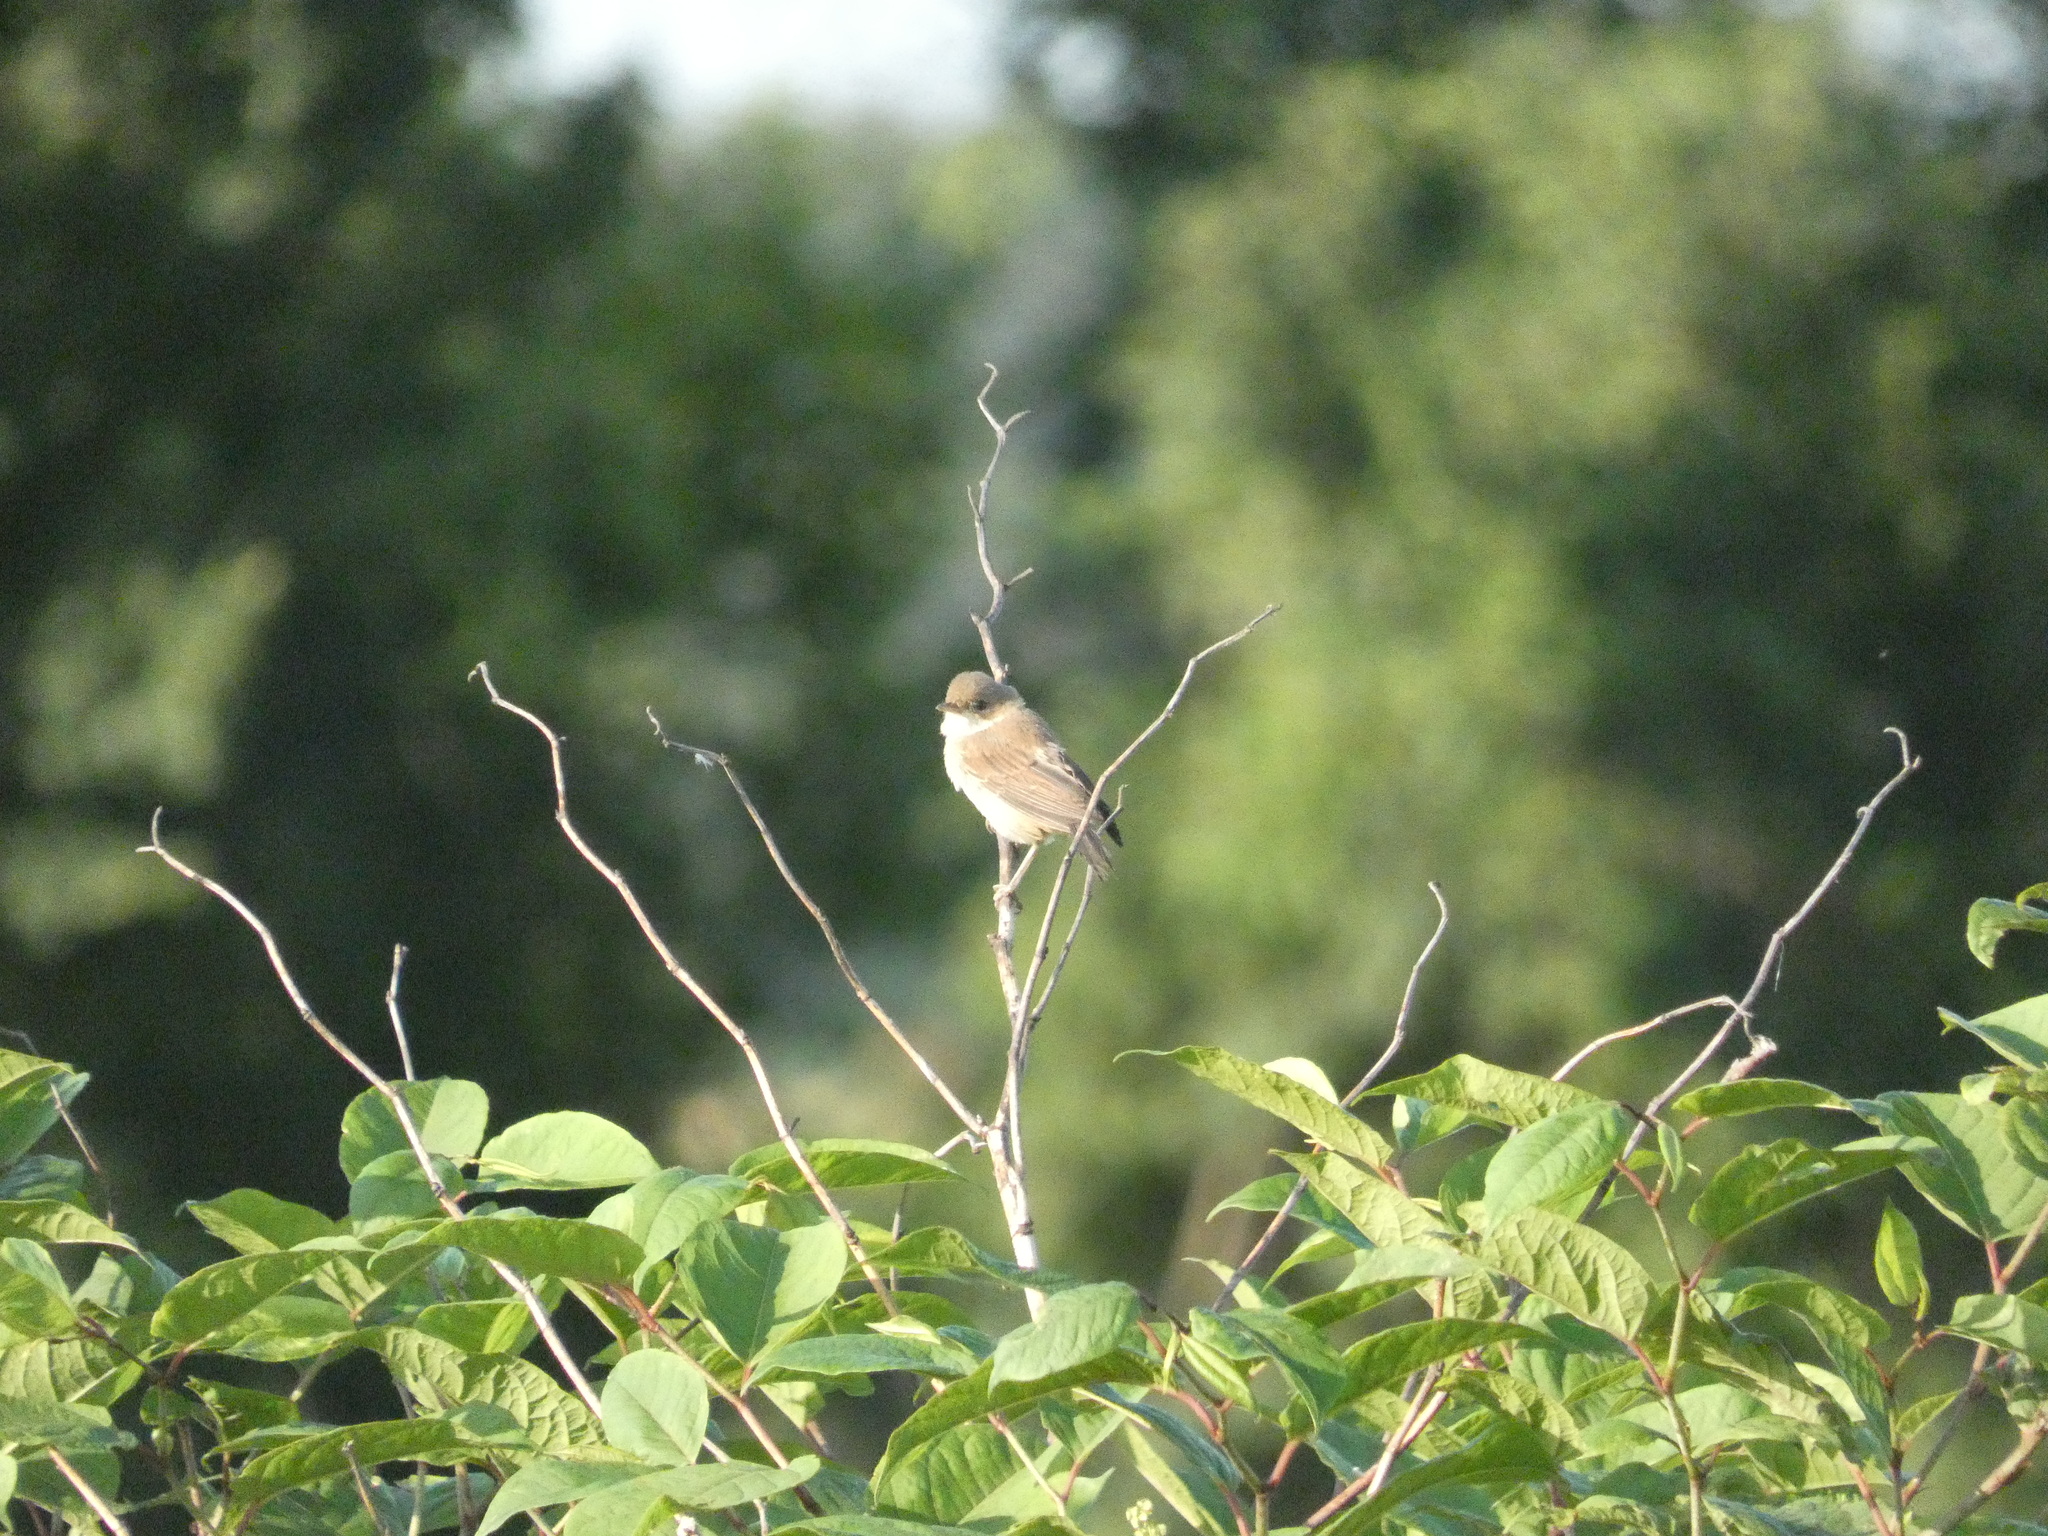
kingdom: Animalia
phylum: Chordata
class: Aves
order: Passeriformes
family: Sylviidae
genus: Sylvia
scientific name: Sylvia communis
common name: Common whitethroat
